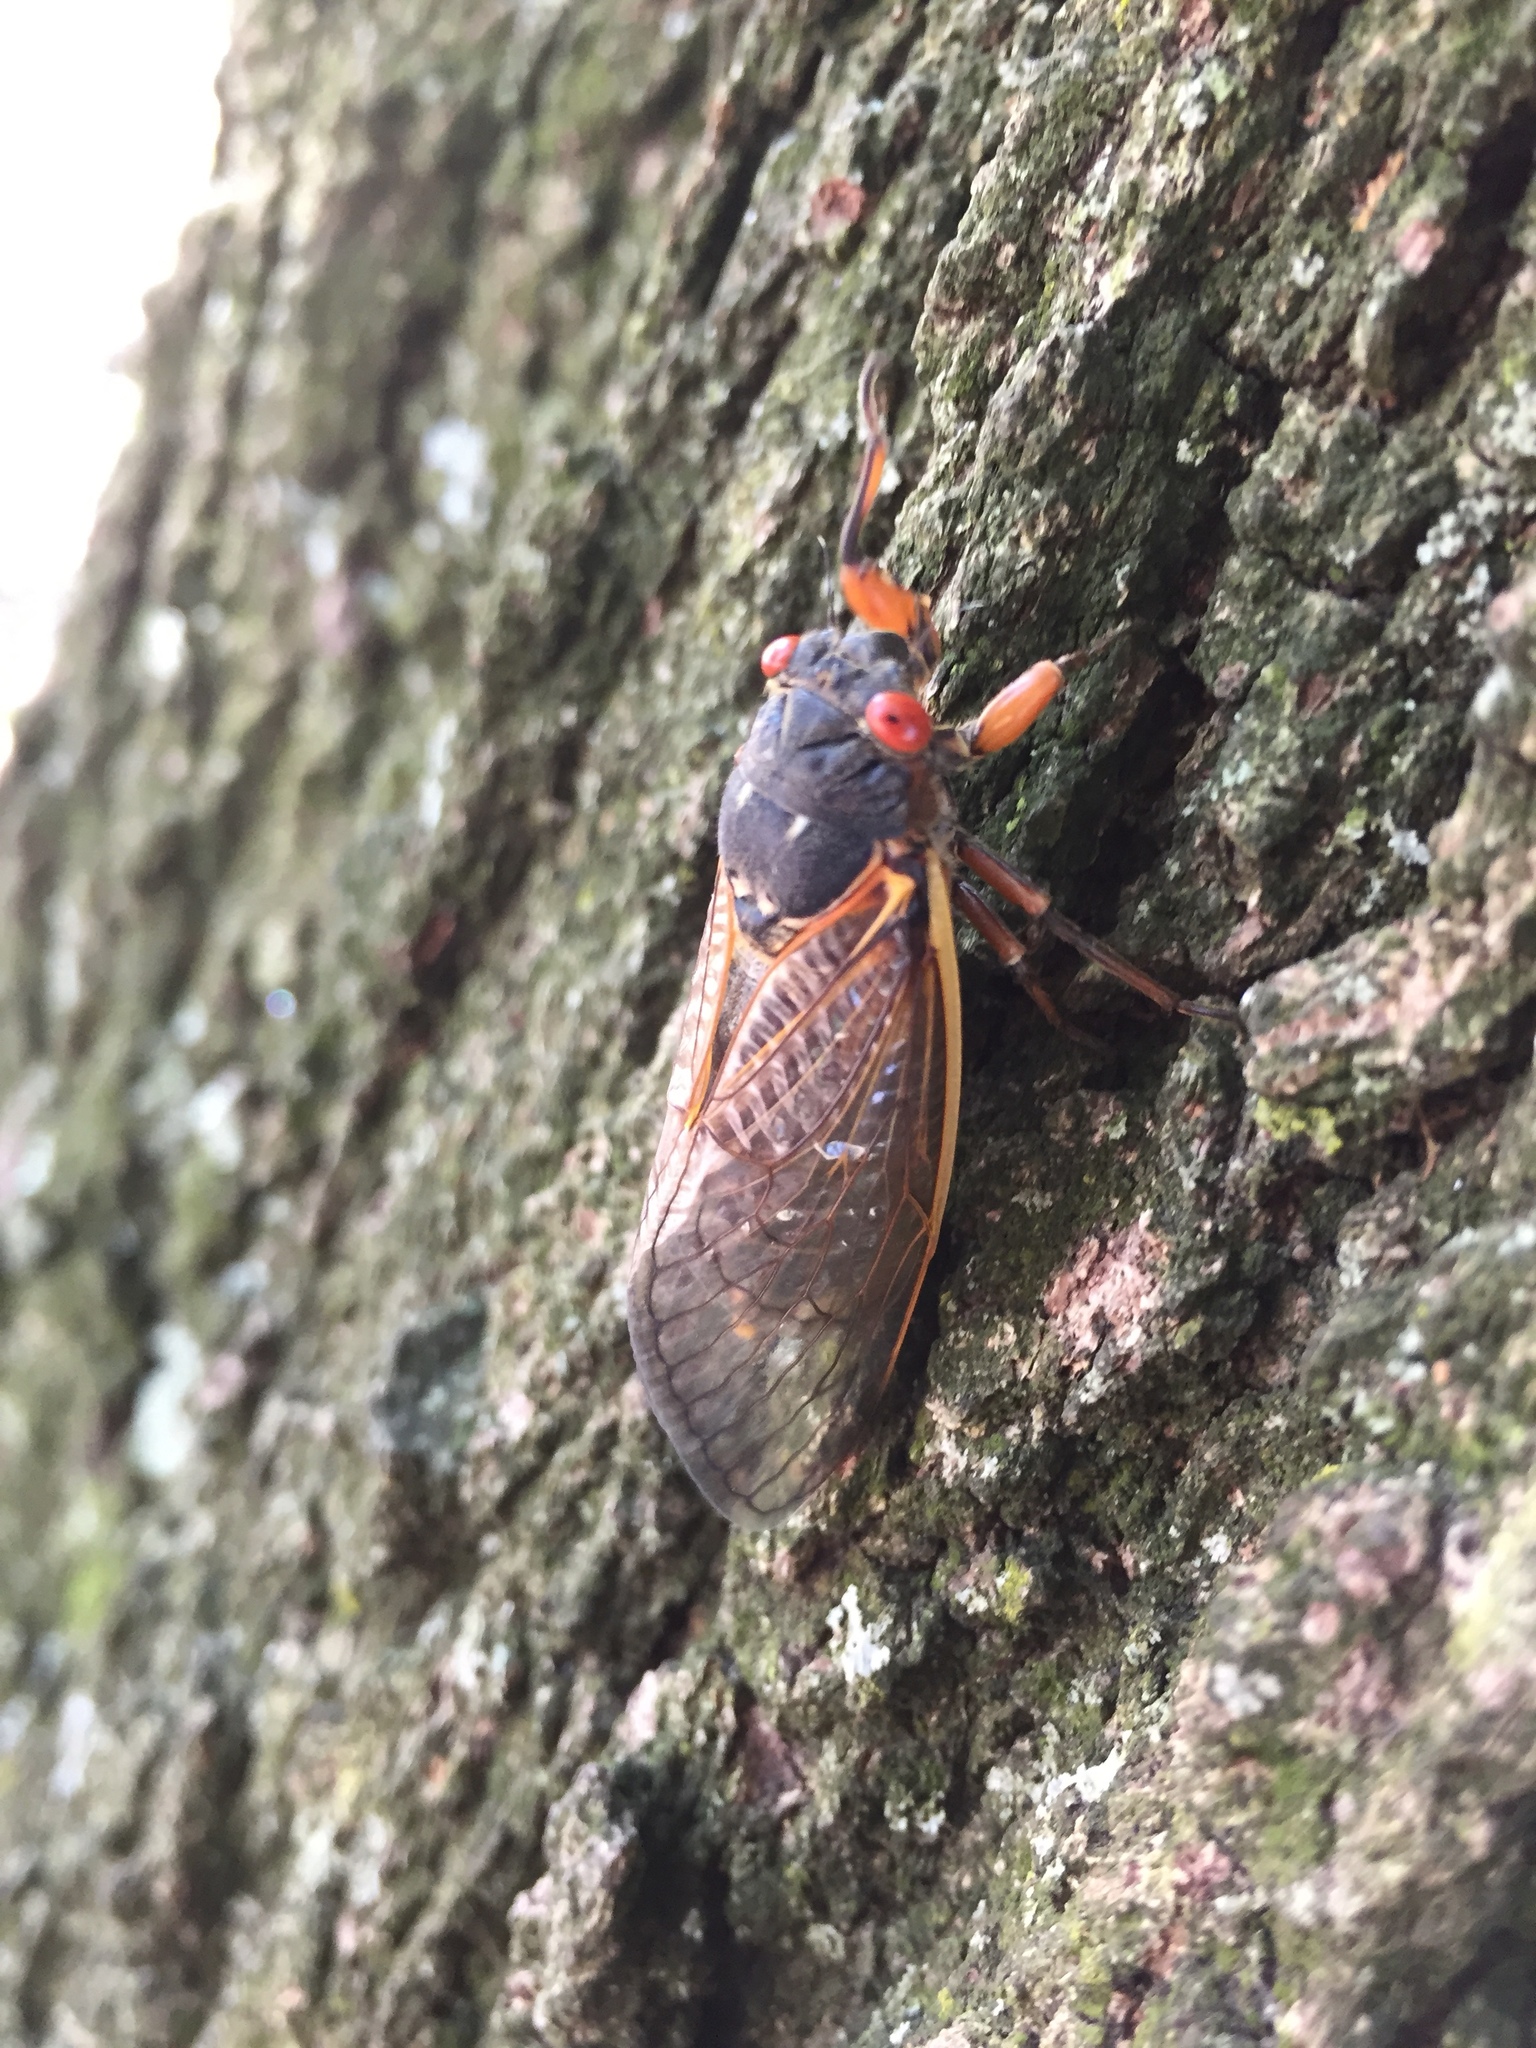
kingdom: Animalia
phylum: Arthropoda
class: Insecta
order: Hemiptera
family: Cicadidae
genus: Magicicada
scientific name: Magicicada septendecim
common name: Periodical cicada
